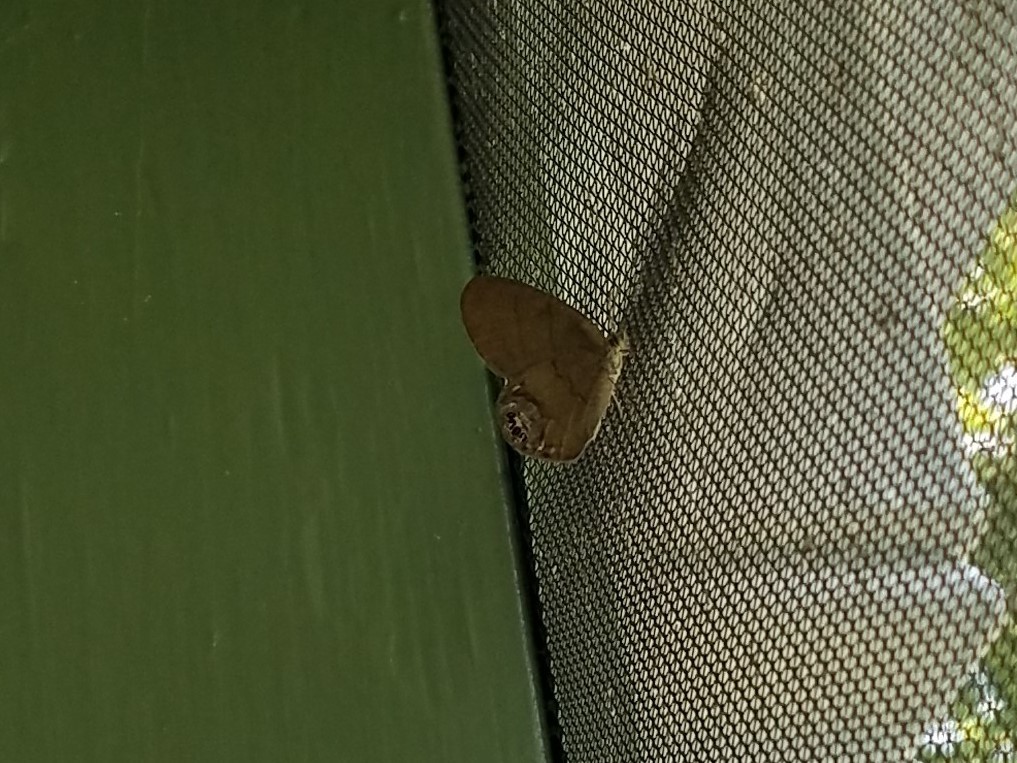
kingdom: Animalia
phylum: Arthropoda
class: Insecta
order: Lepidoptera
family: Nymphalidae
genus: Euptychia
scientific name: Euptychia cornelius
